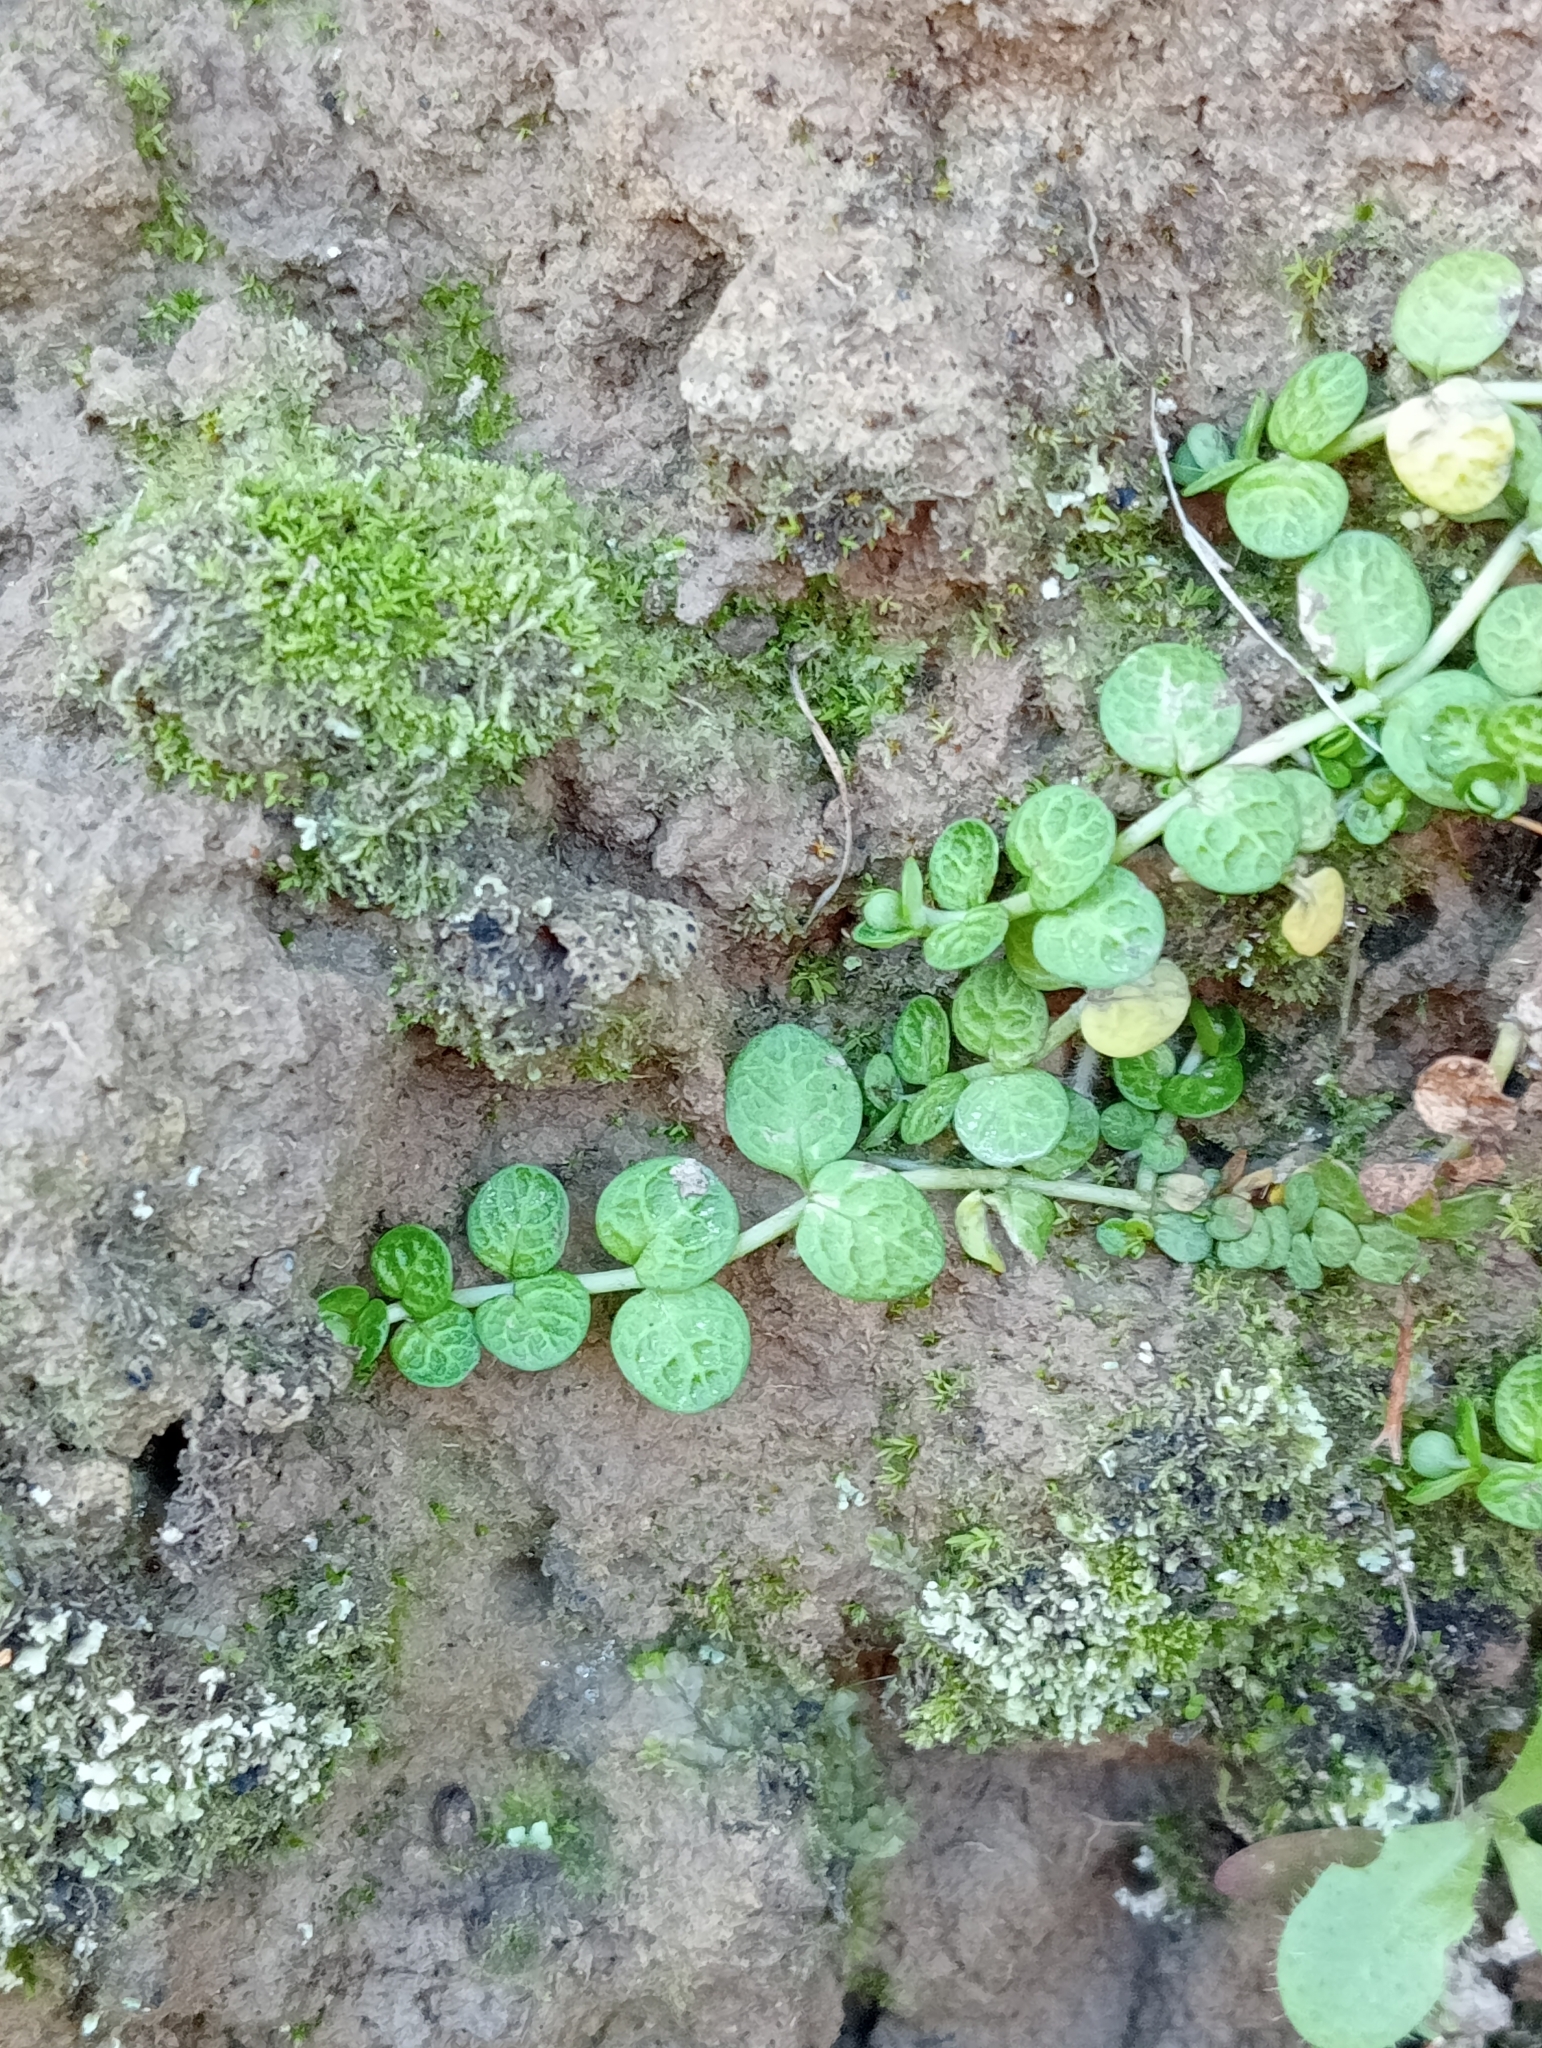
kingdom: Plantae
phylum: Tracheophyta
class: Magnoliopsida
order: Myrtales
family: Onagraceae
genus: Epilobium
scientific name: Epilobium komarovianum
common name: Bronzy willowherb
